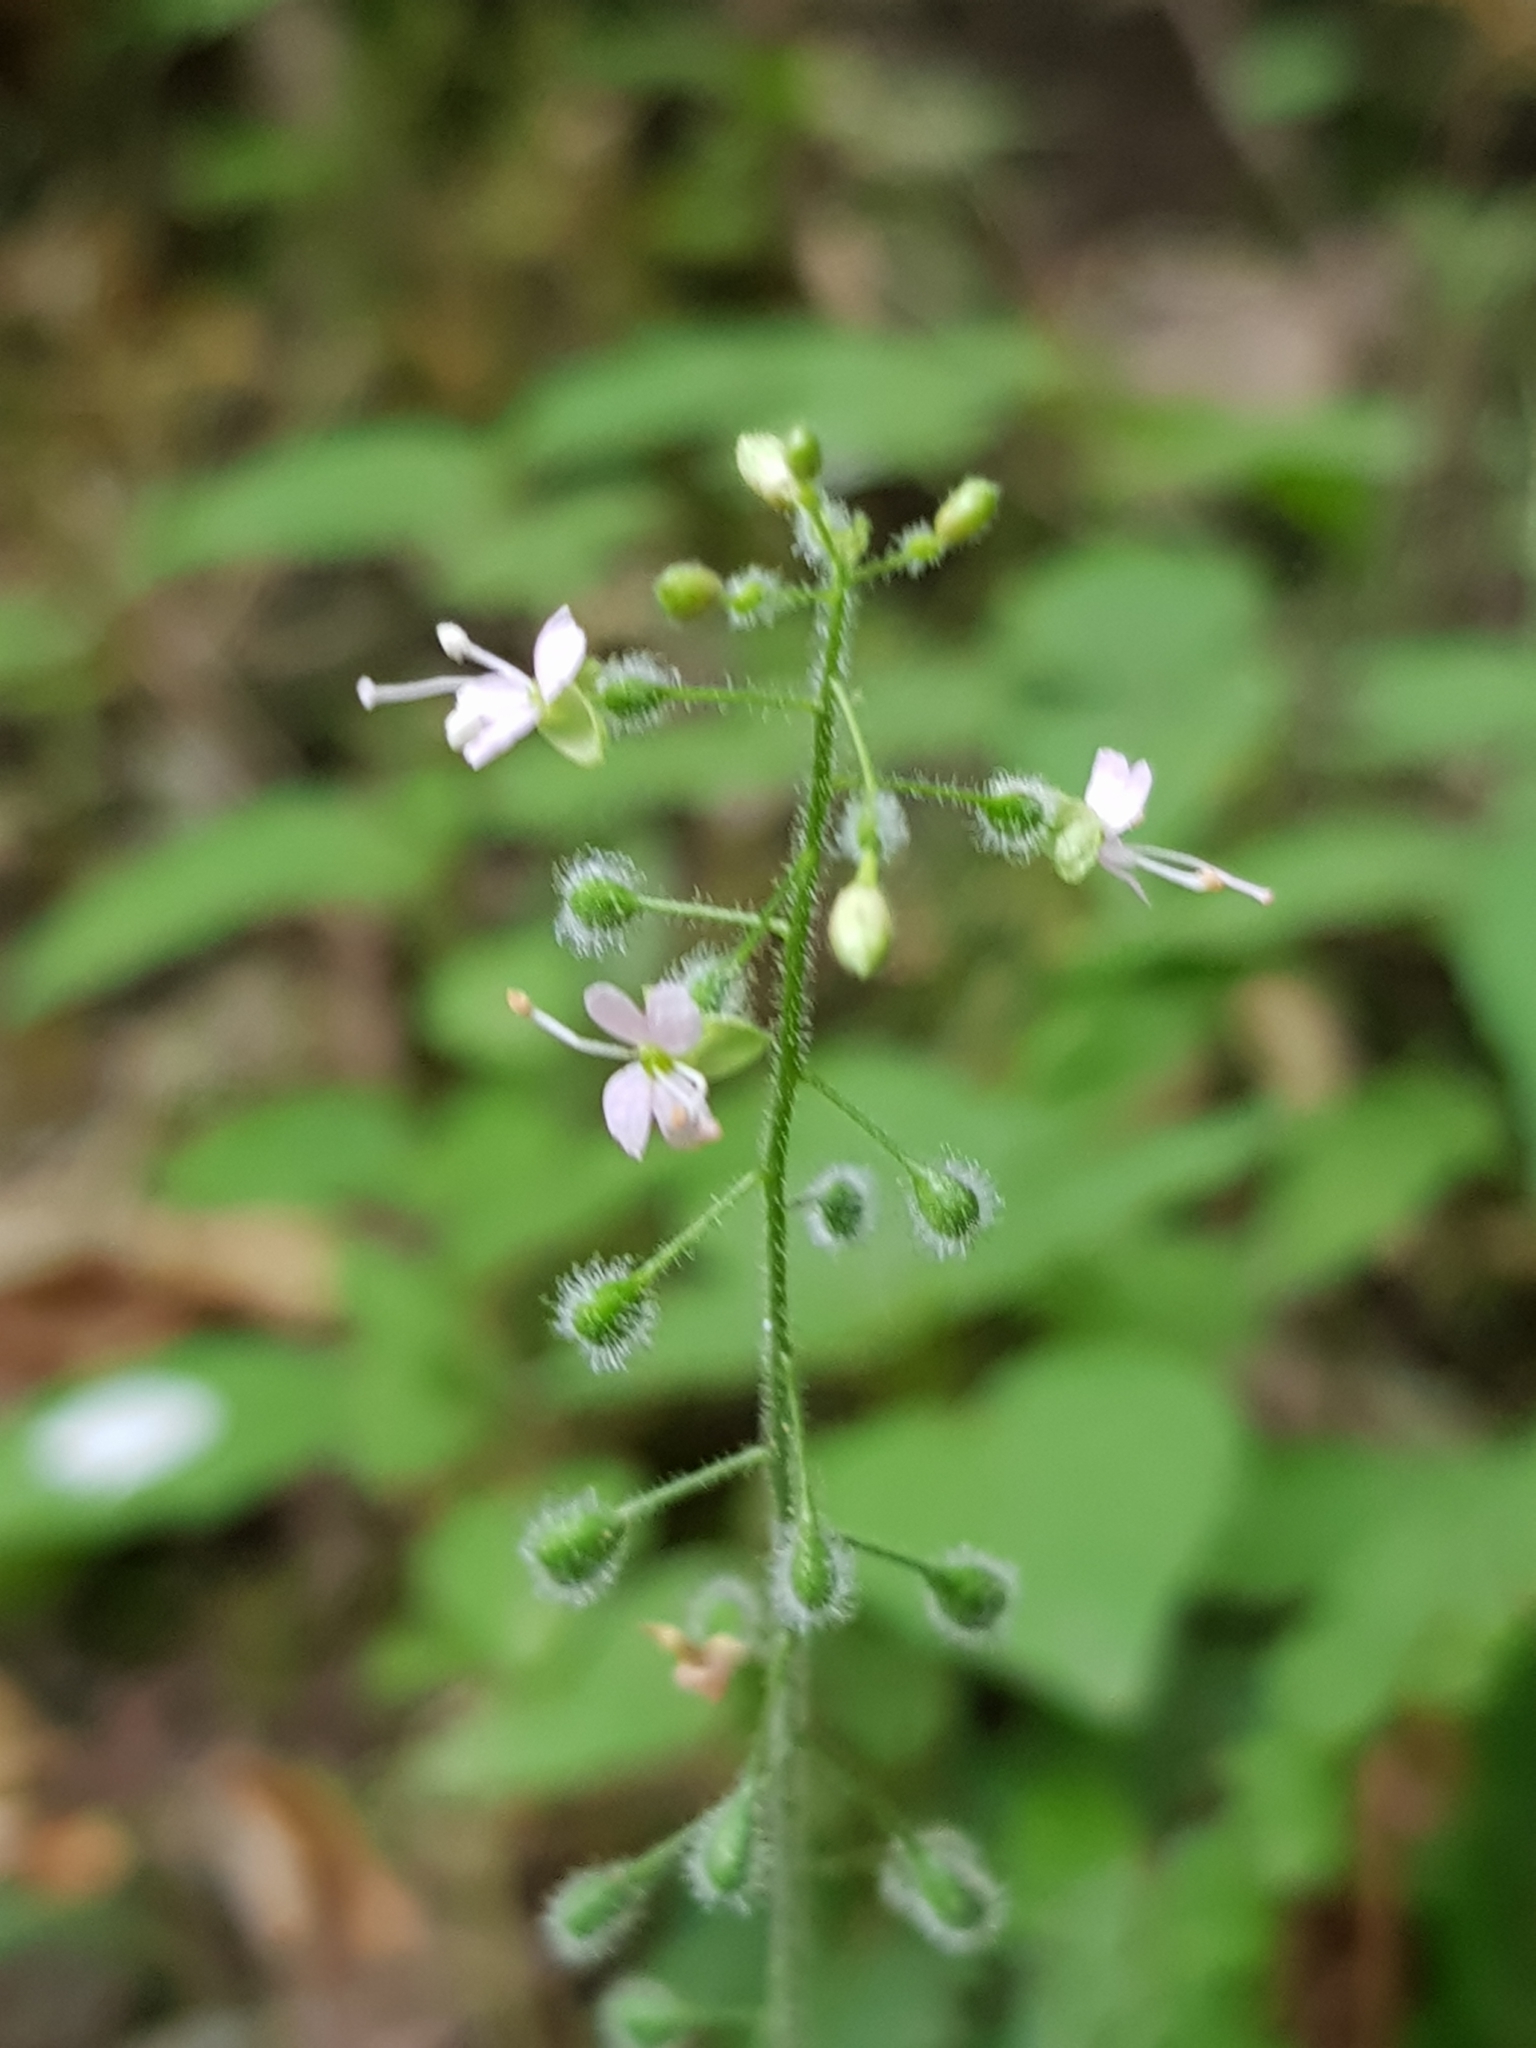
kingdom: Plantae
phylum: Tracheophyta
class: Magnoliopsida
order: Myrtales
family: Onagraceae
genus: Circaea
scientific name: Circaea lutetiana
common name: Enchanter's-nightshade
